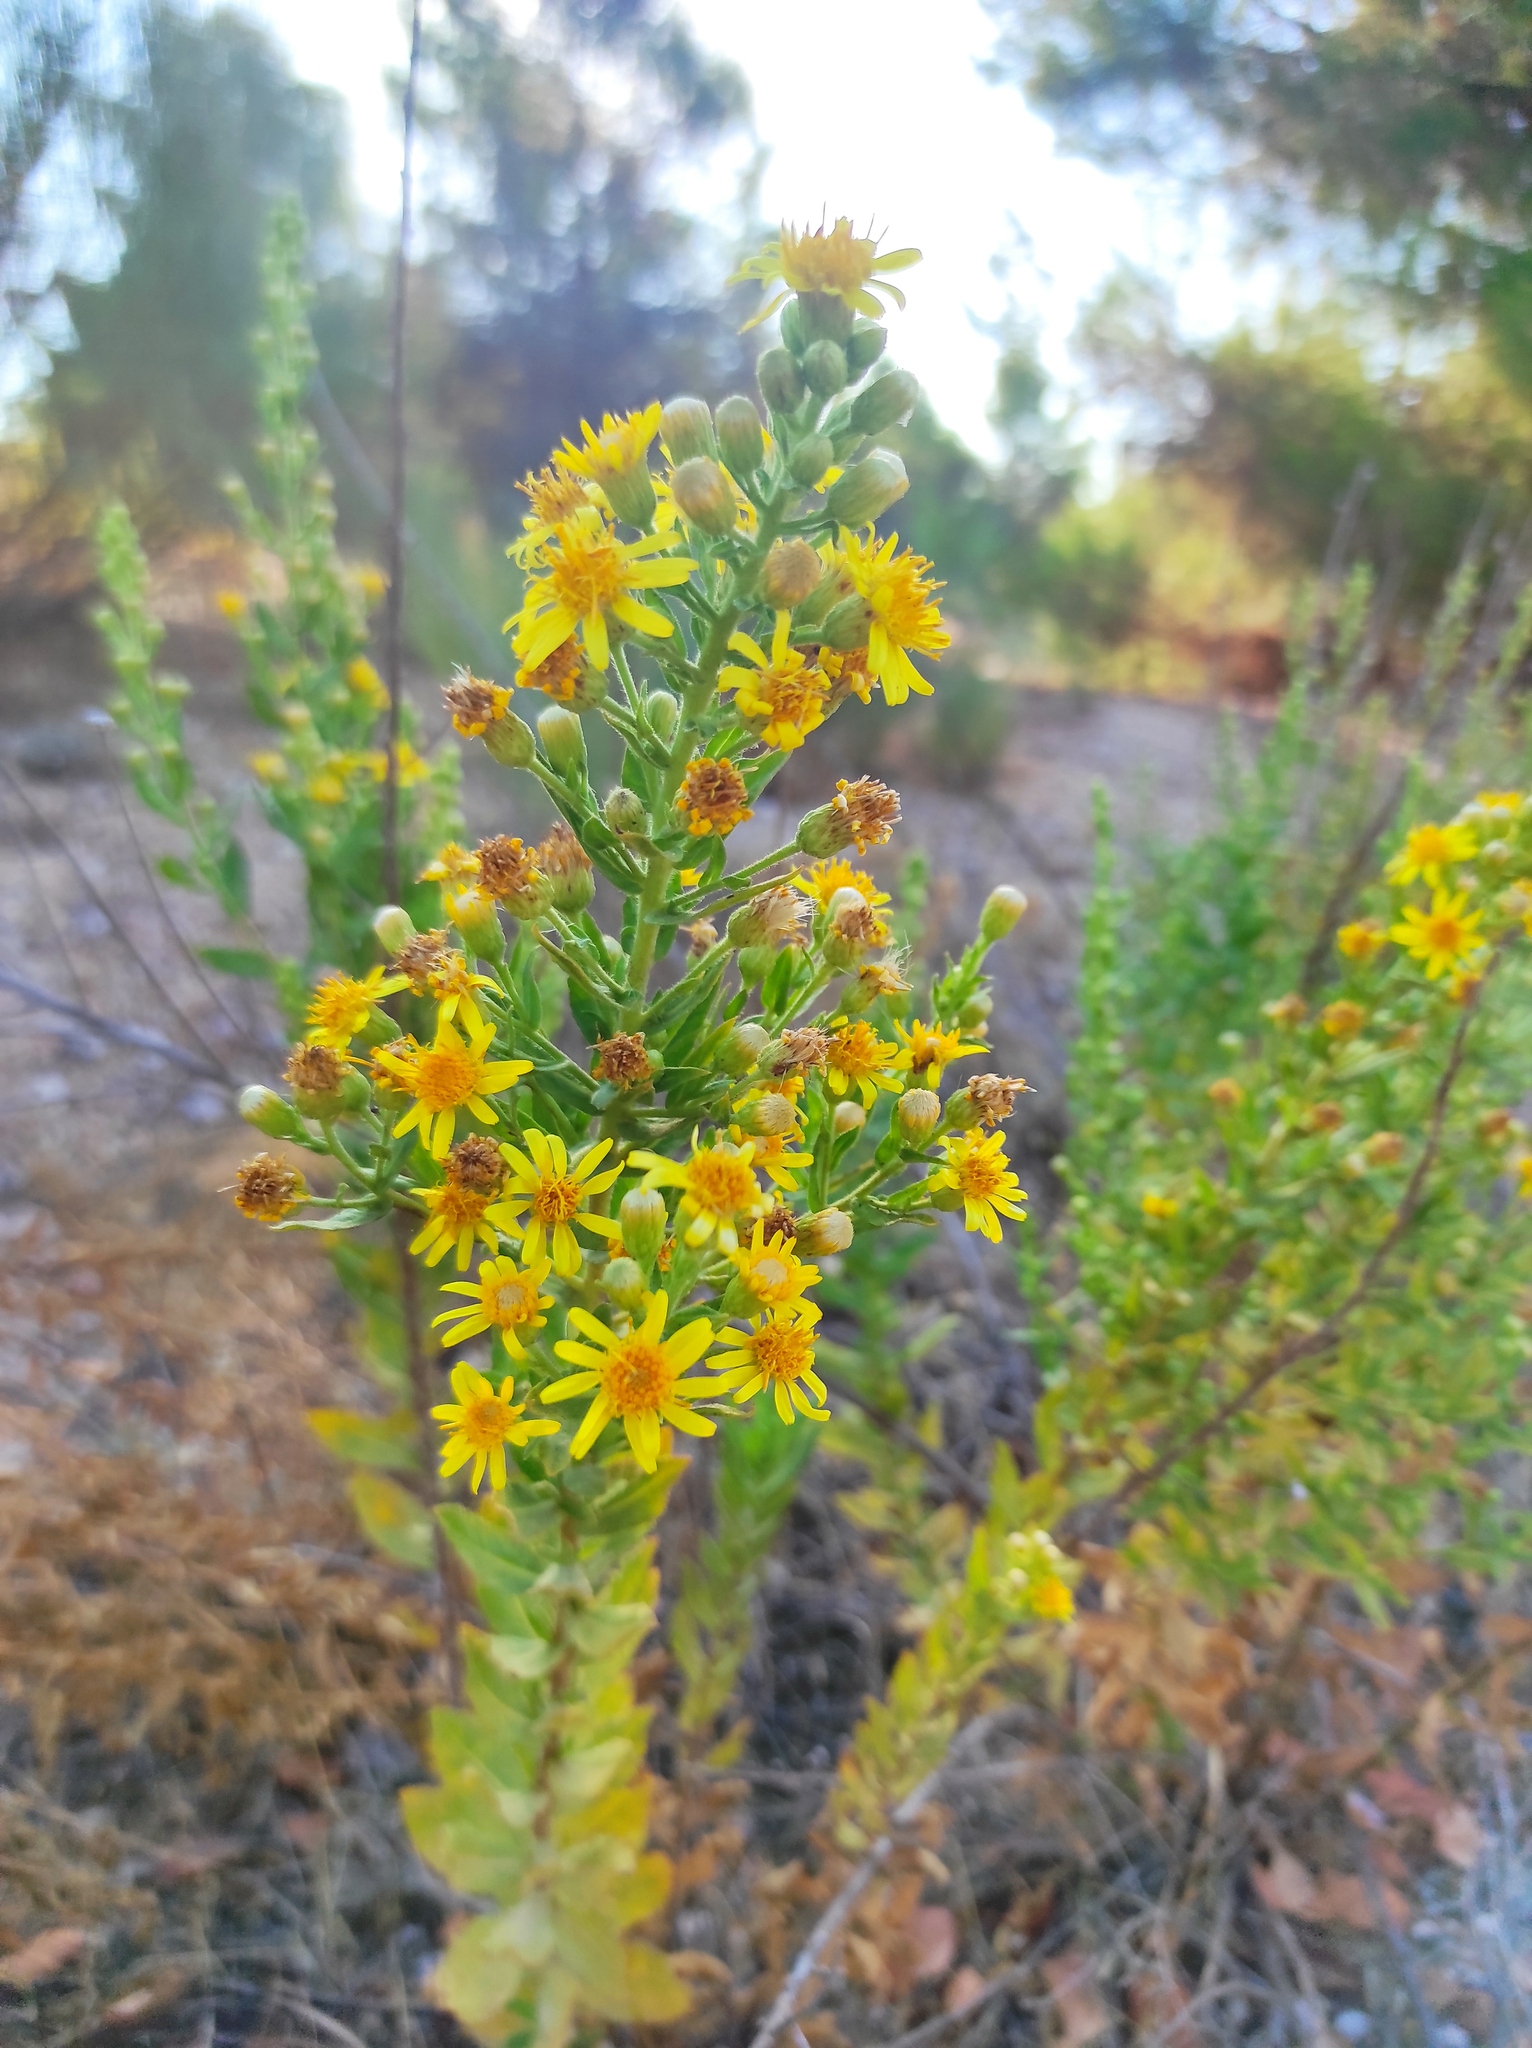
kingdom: Plantae
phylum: Tracheophyta
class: Magnoliopsida
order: Asterales
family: Asteraceae
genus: Dittrichia
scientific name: Dittrichia viscosa
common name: Woody fleabane
